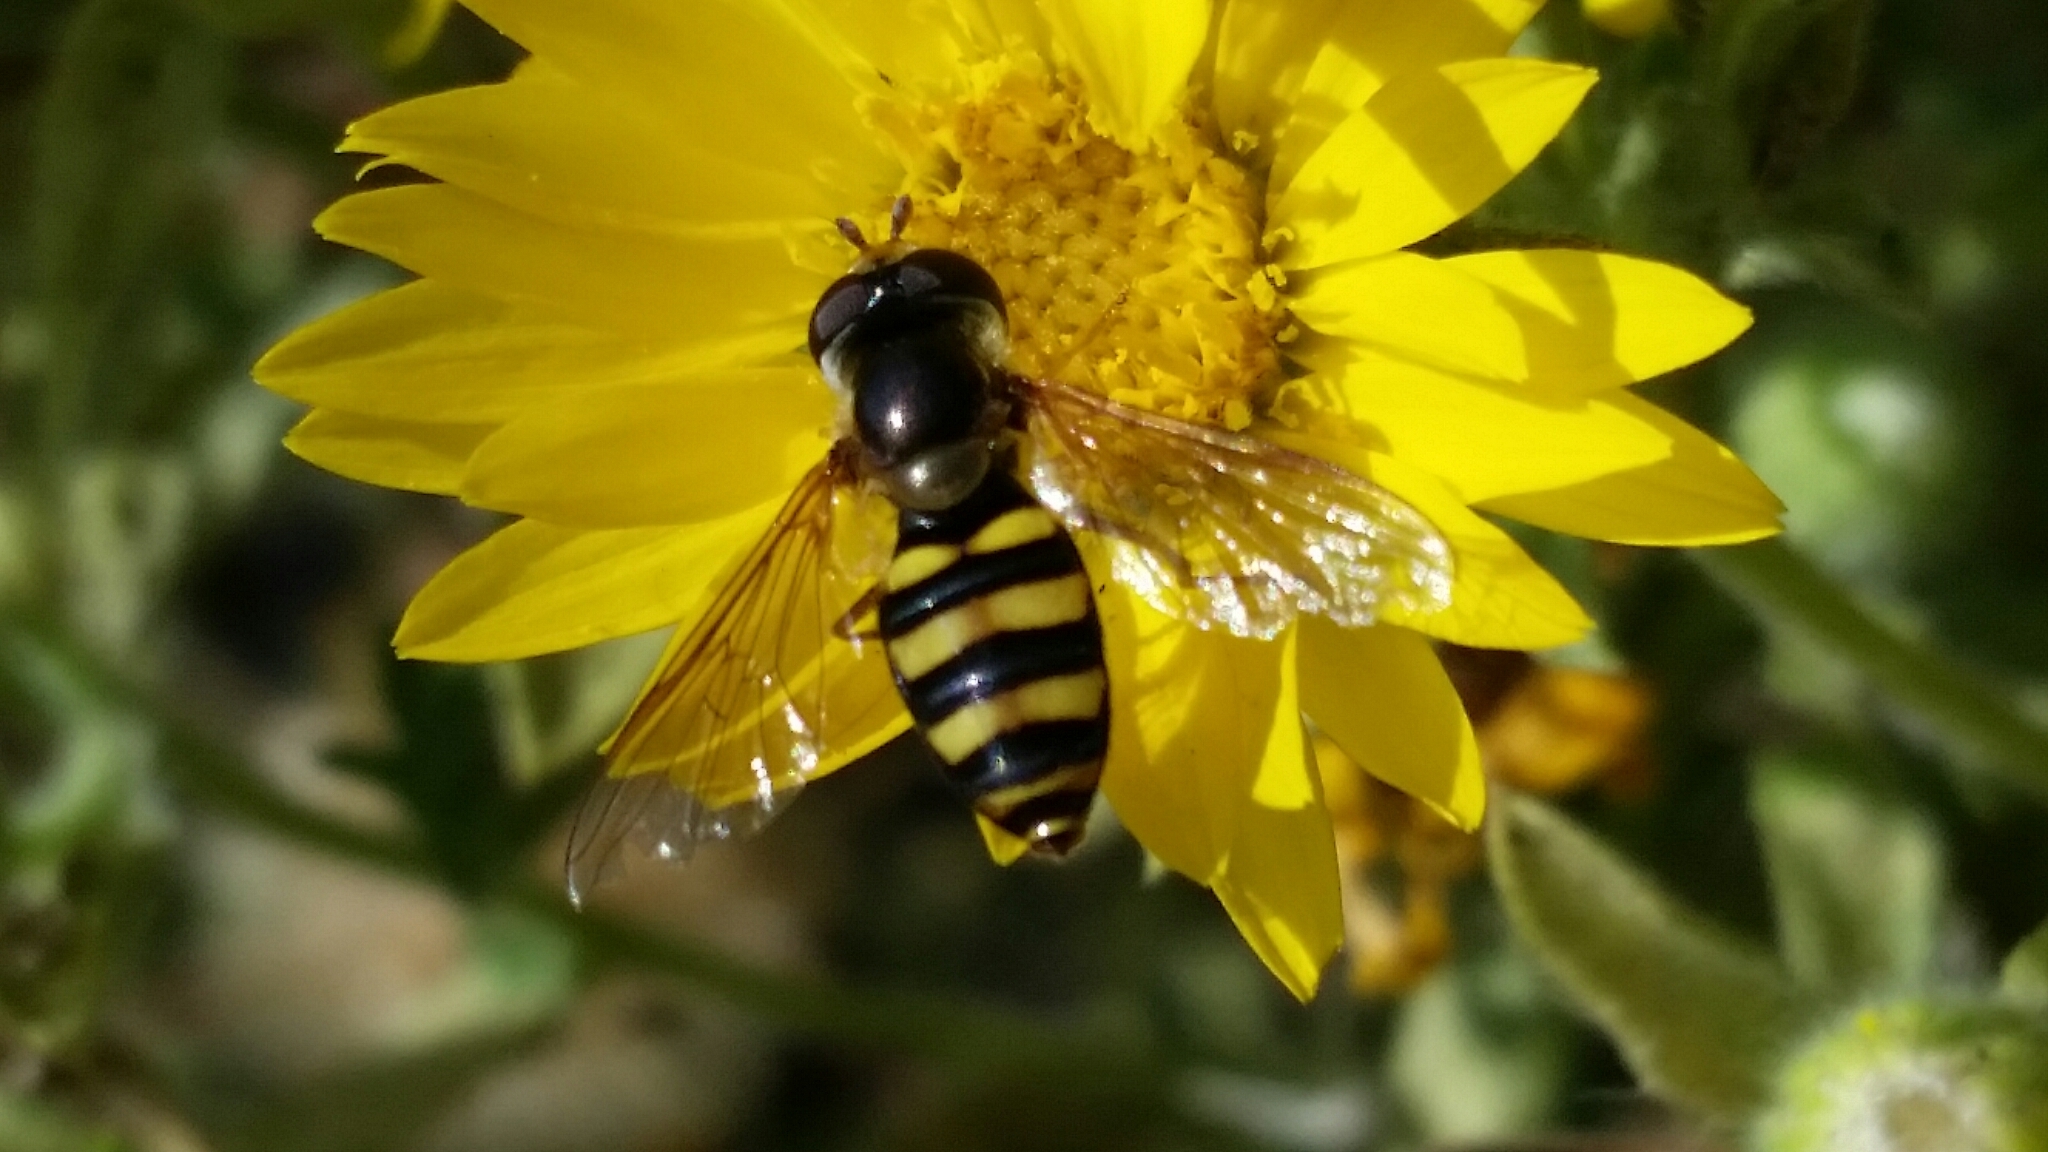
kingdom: Animalia
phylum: Arthropoda
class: Insecta
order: Diptera
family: Syrphidae
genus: Eupeodes
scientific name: Eupeodes
